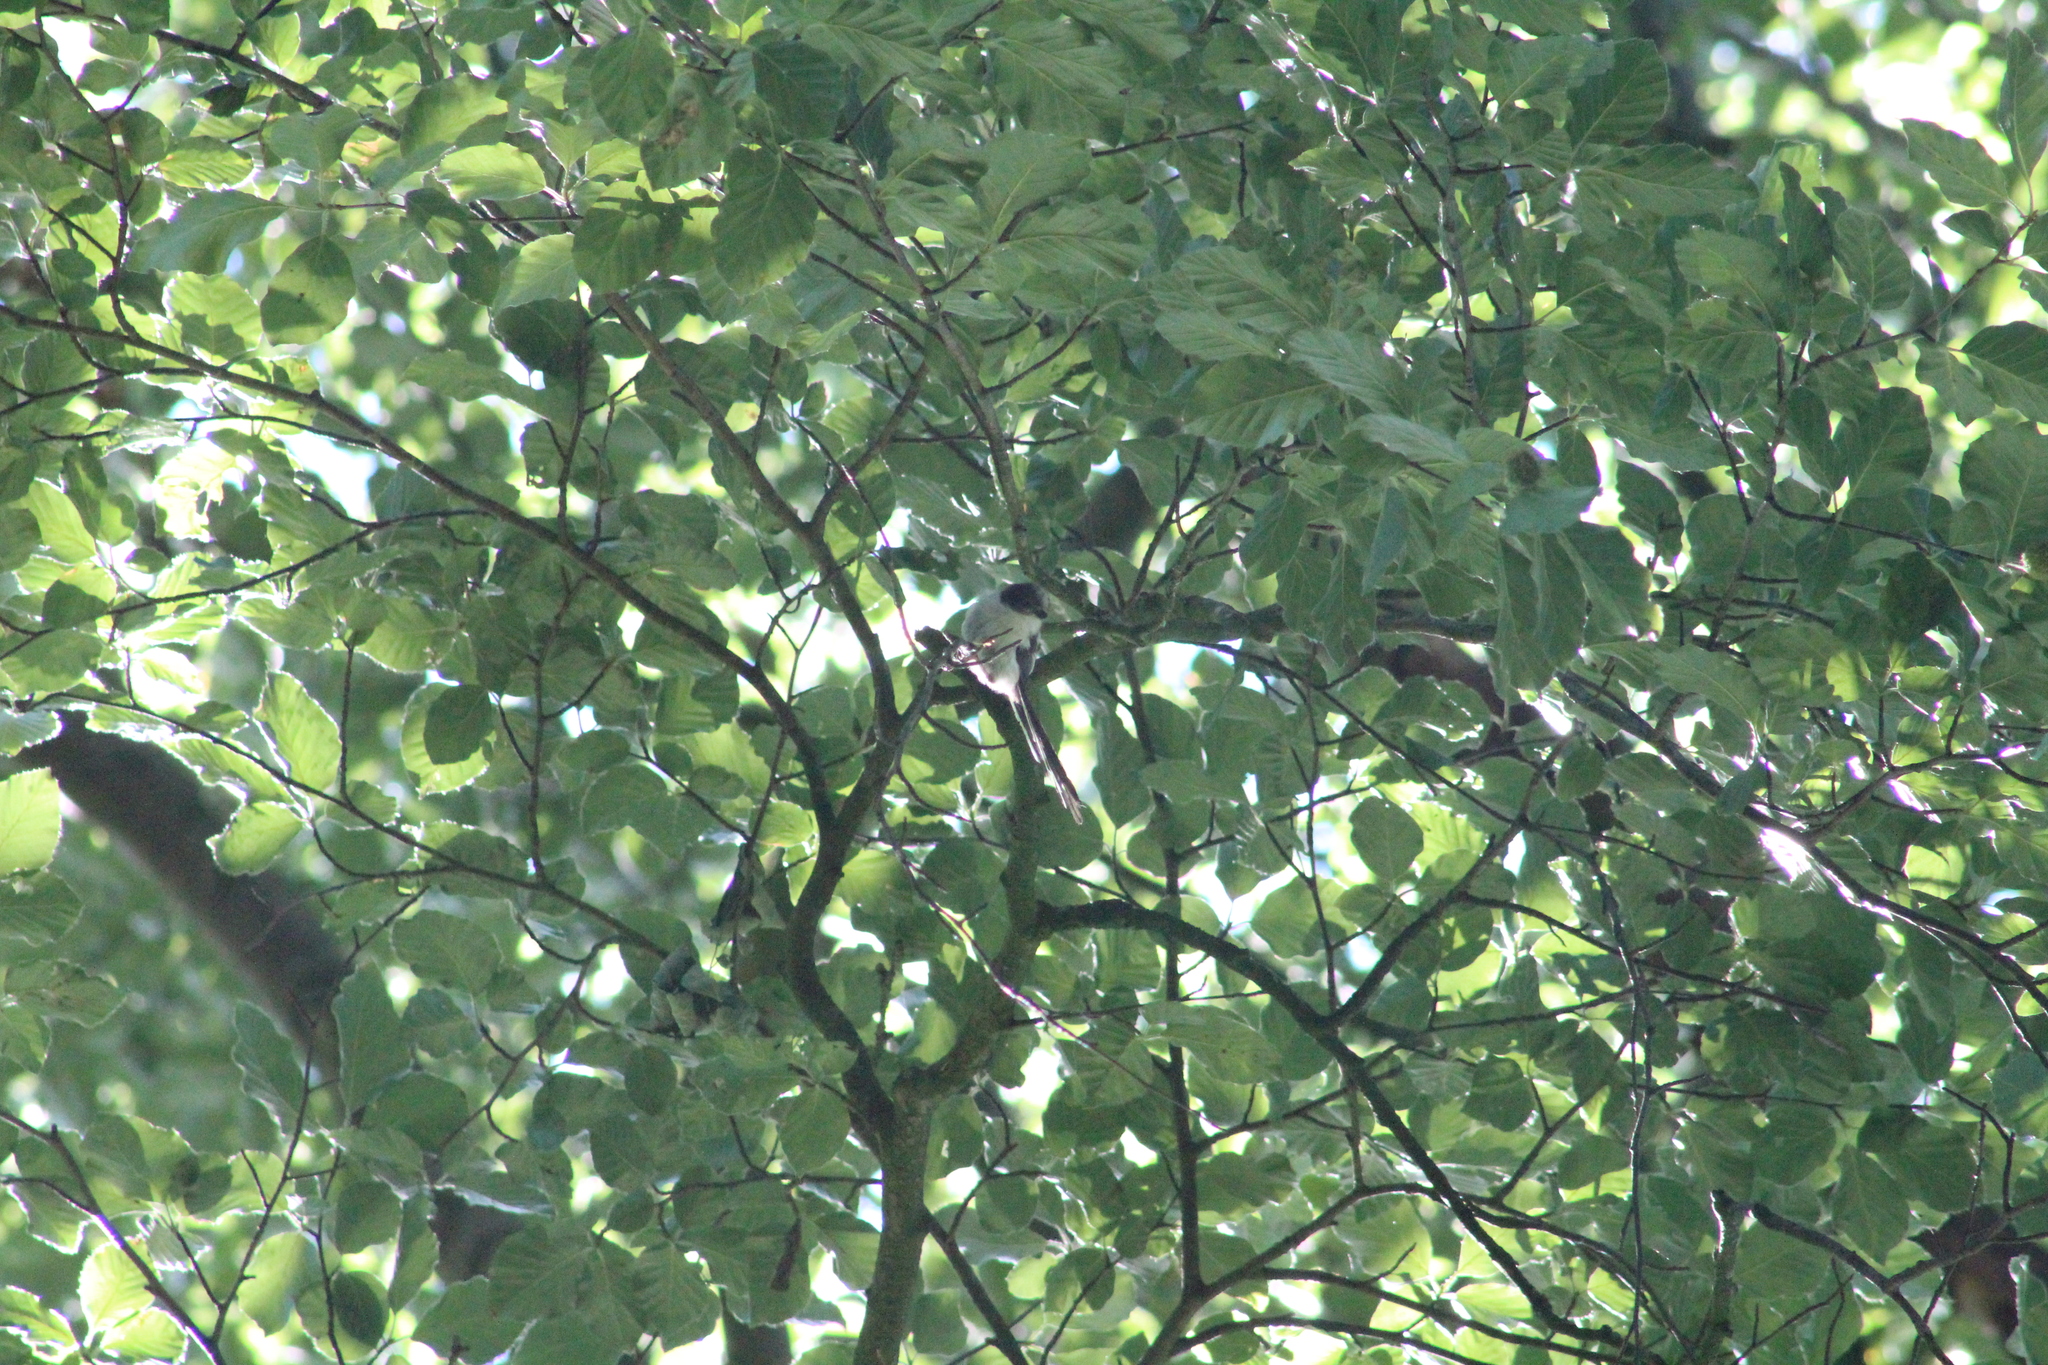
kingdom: Animalia
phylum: Chordata
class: Aves
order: Passeriformes
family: Aegithalidae
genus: Aegithalos
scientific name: Aegithalos caudatus
